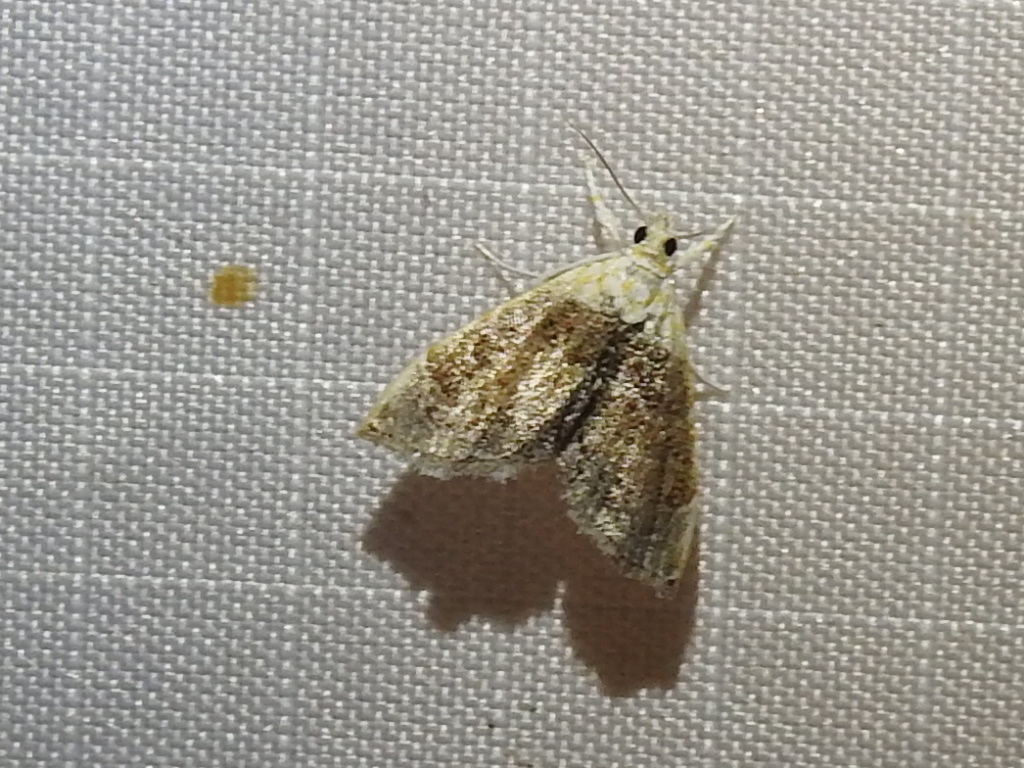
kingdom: Animalia
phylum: Arthropoda
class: Insecta
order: Lepidoptera
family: Crambidae
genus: Lipocosma
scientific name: Lipocosma polingi
